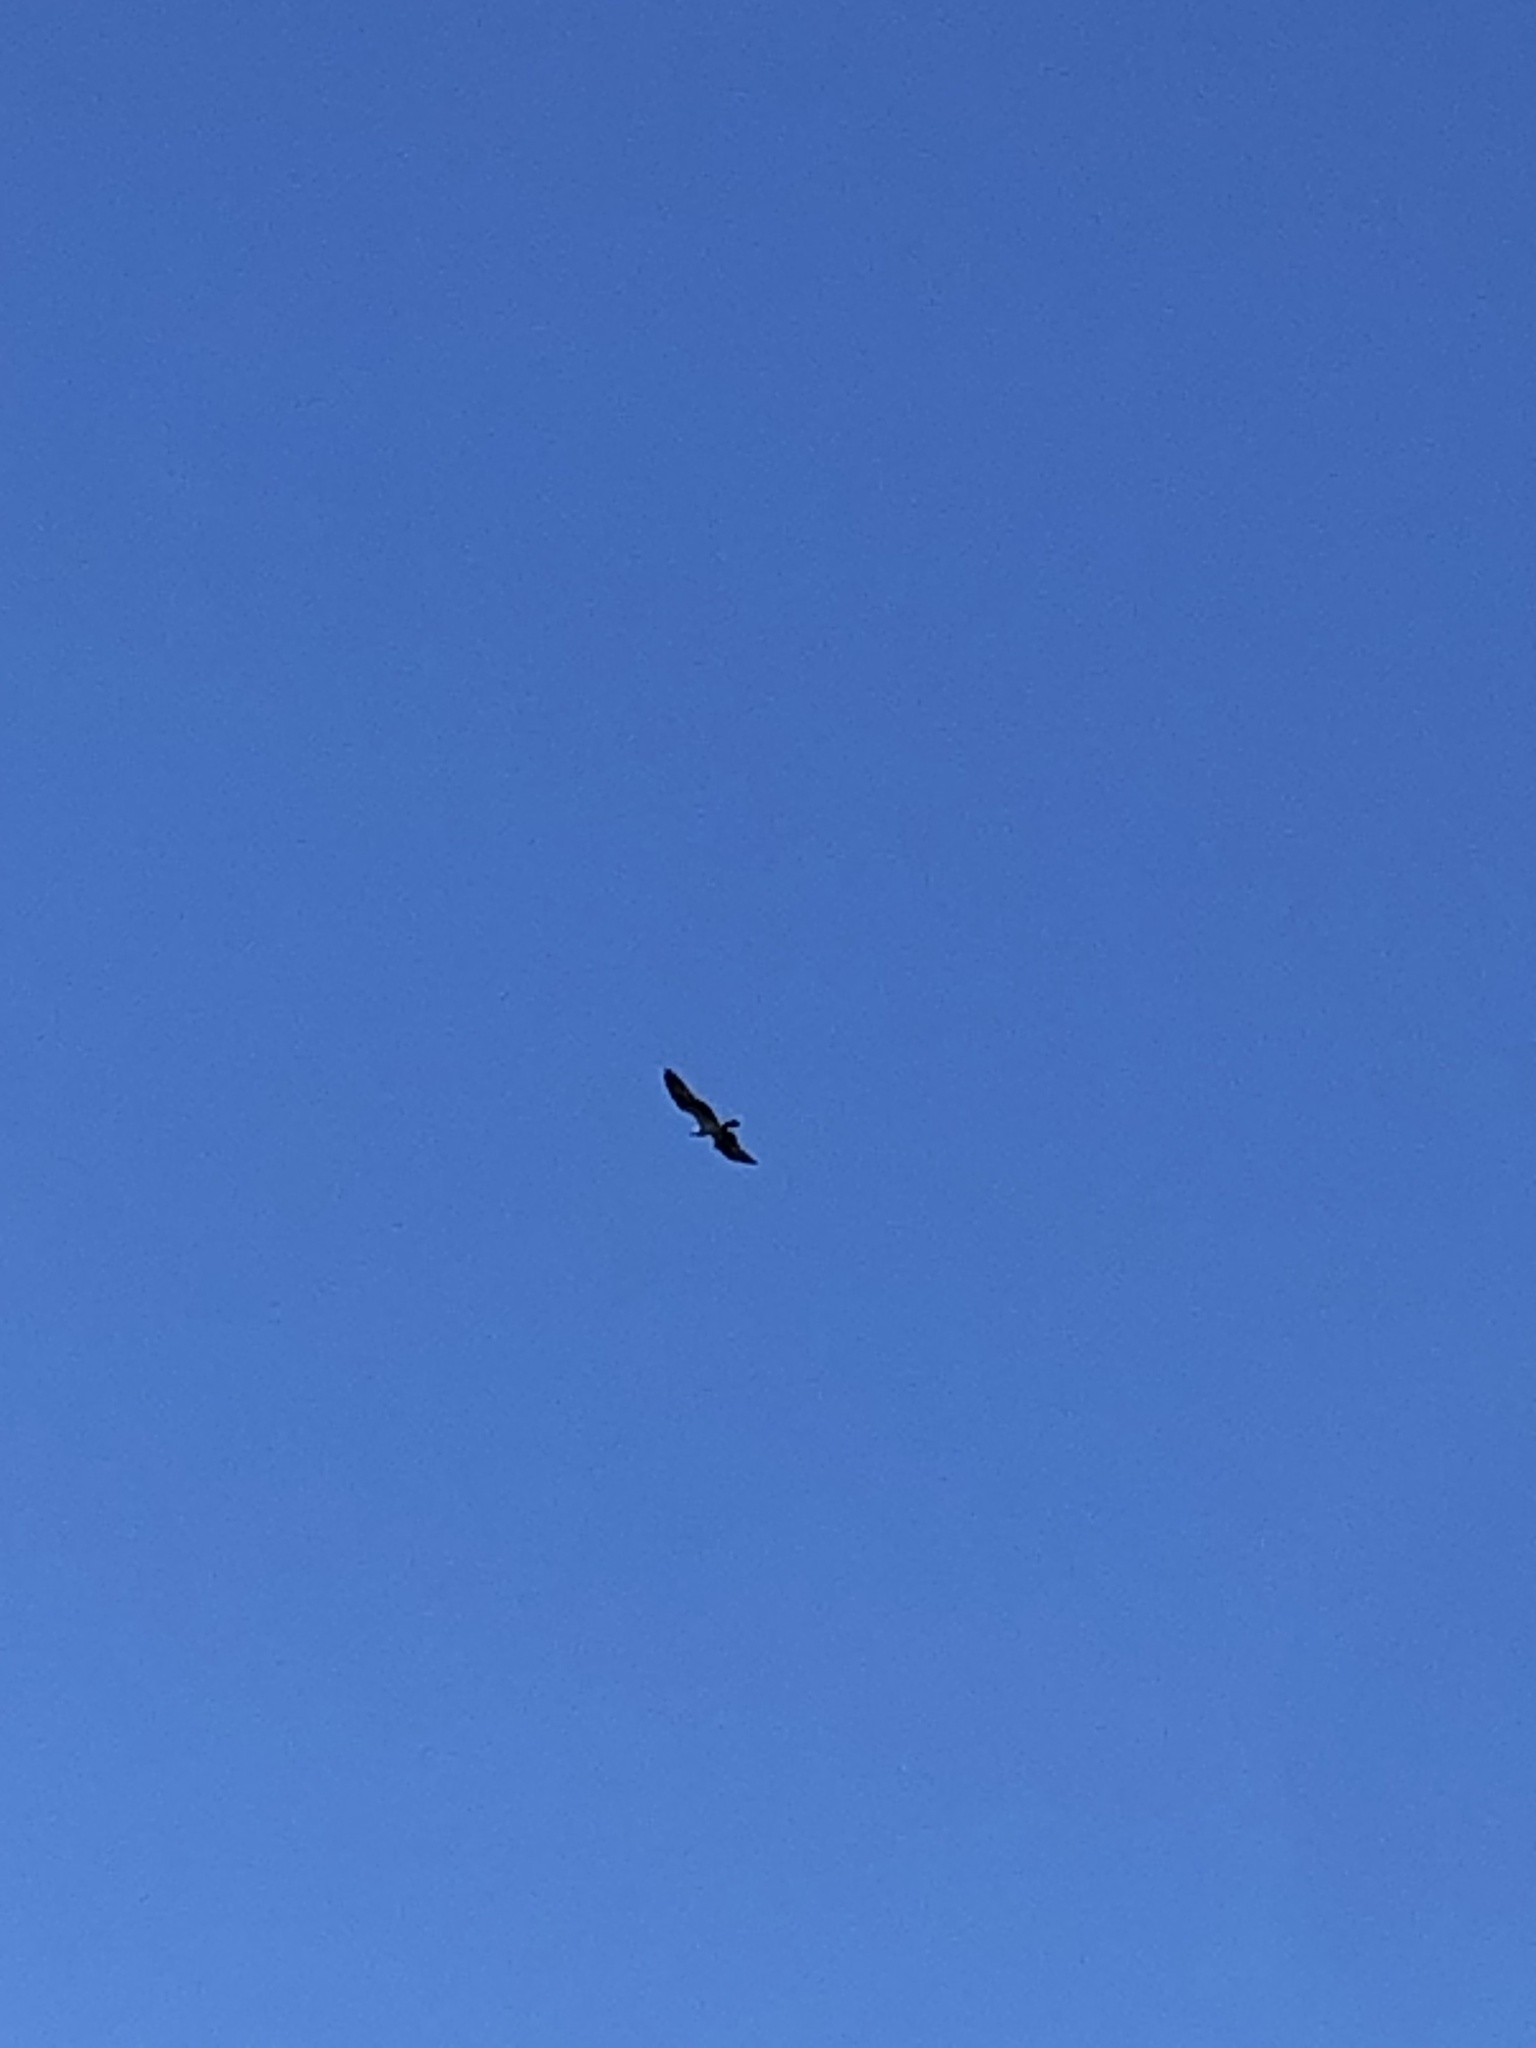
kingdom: Animalia
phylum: Chordata
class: Aves
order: Accipitriformes
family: Pandionidae
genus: Pandion
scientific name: Pandion haliaetus
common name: Osprey
